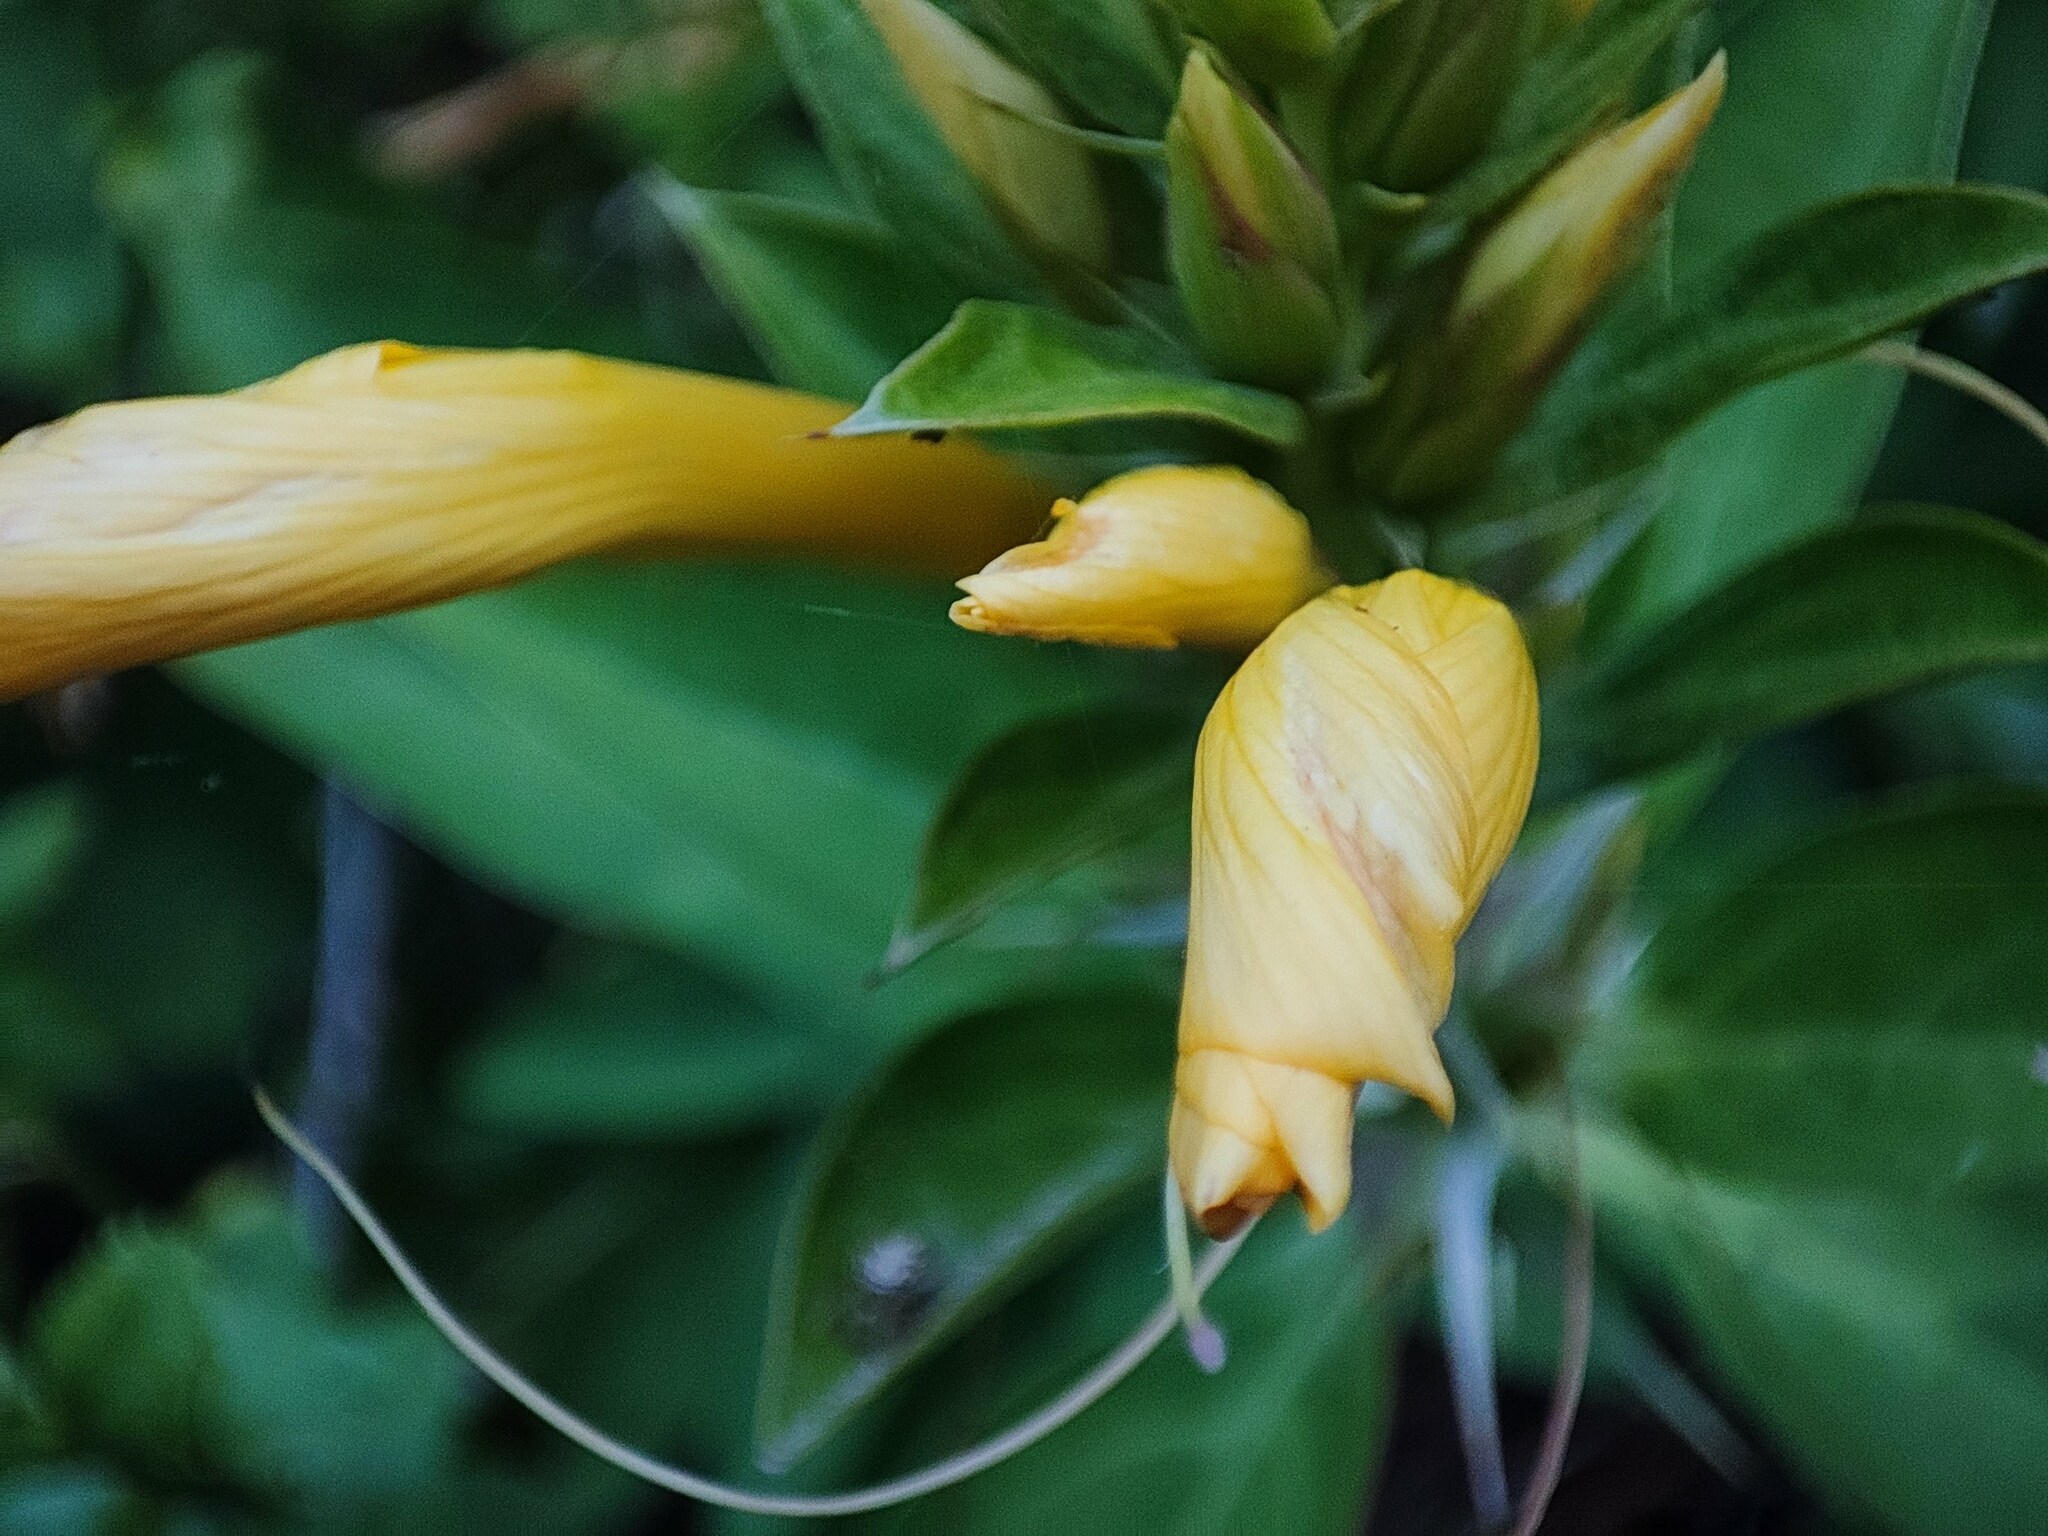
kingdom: Plantae
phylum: Tracheophyta
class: Magnoliopsida
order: Lamiales
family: Acanthaceae
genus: Barleria
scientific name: Barleria prionitis
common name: Barleria
